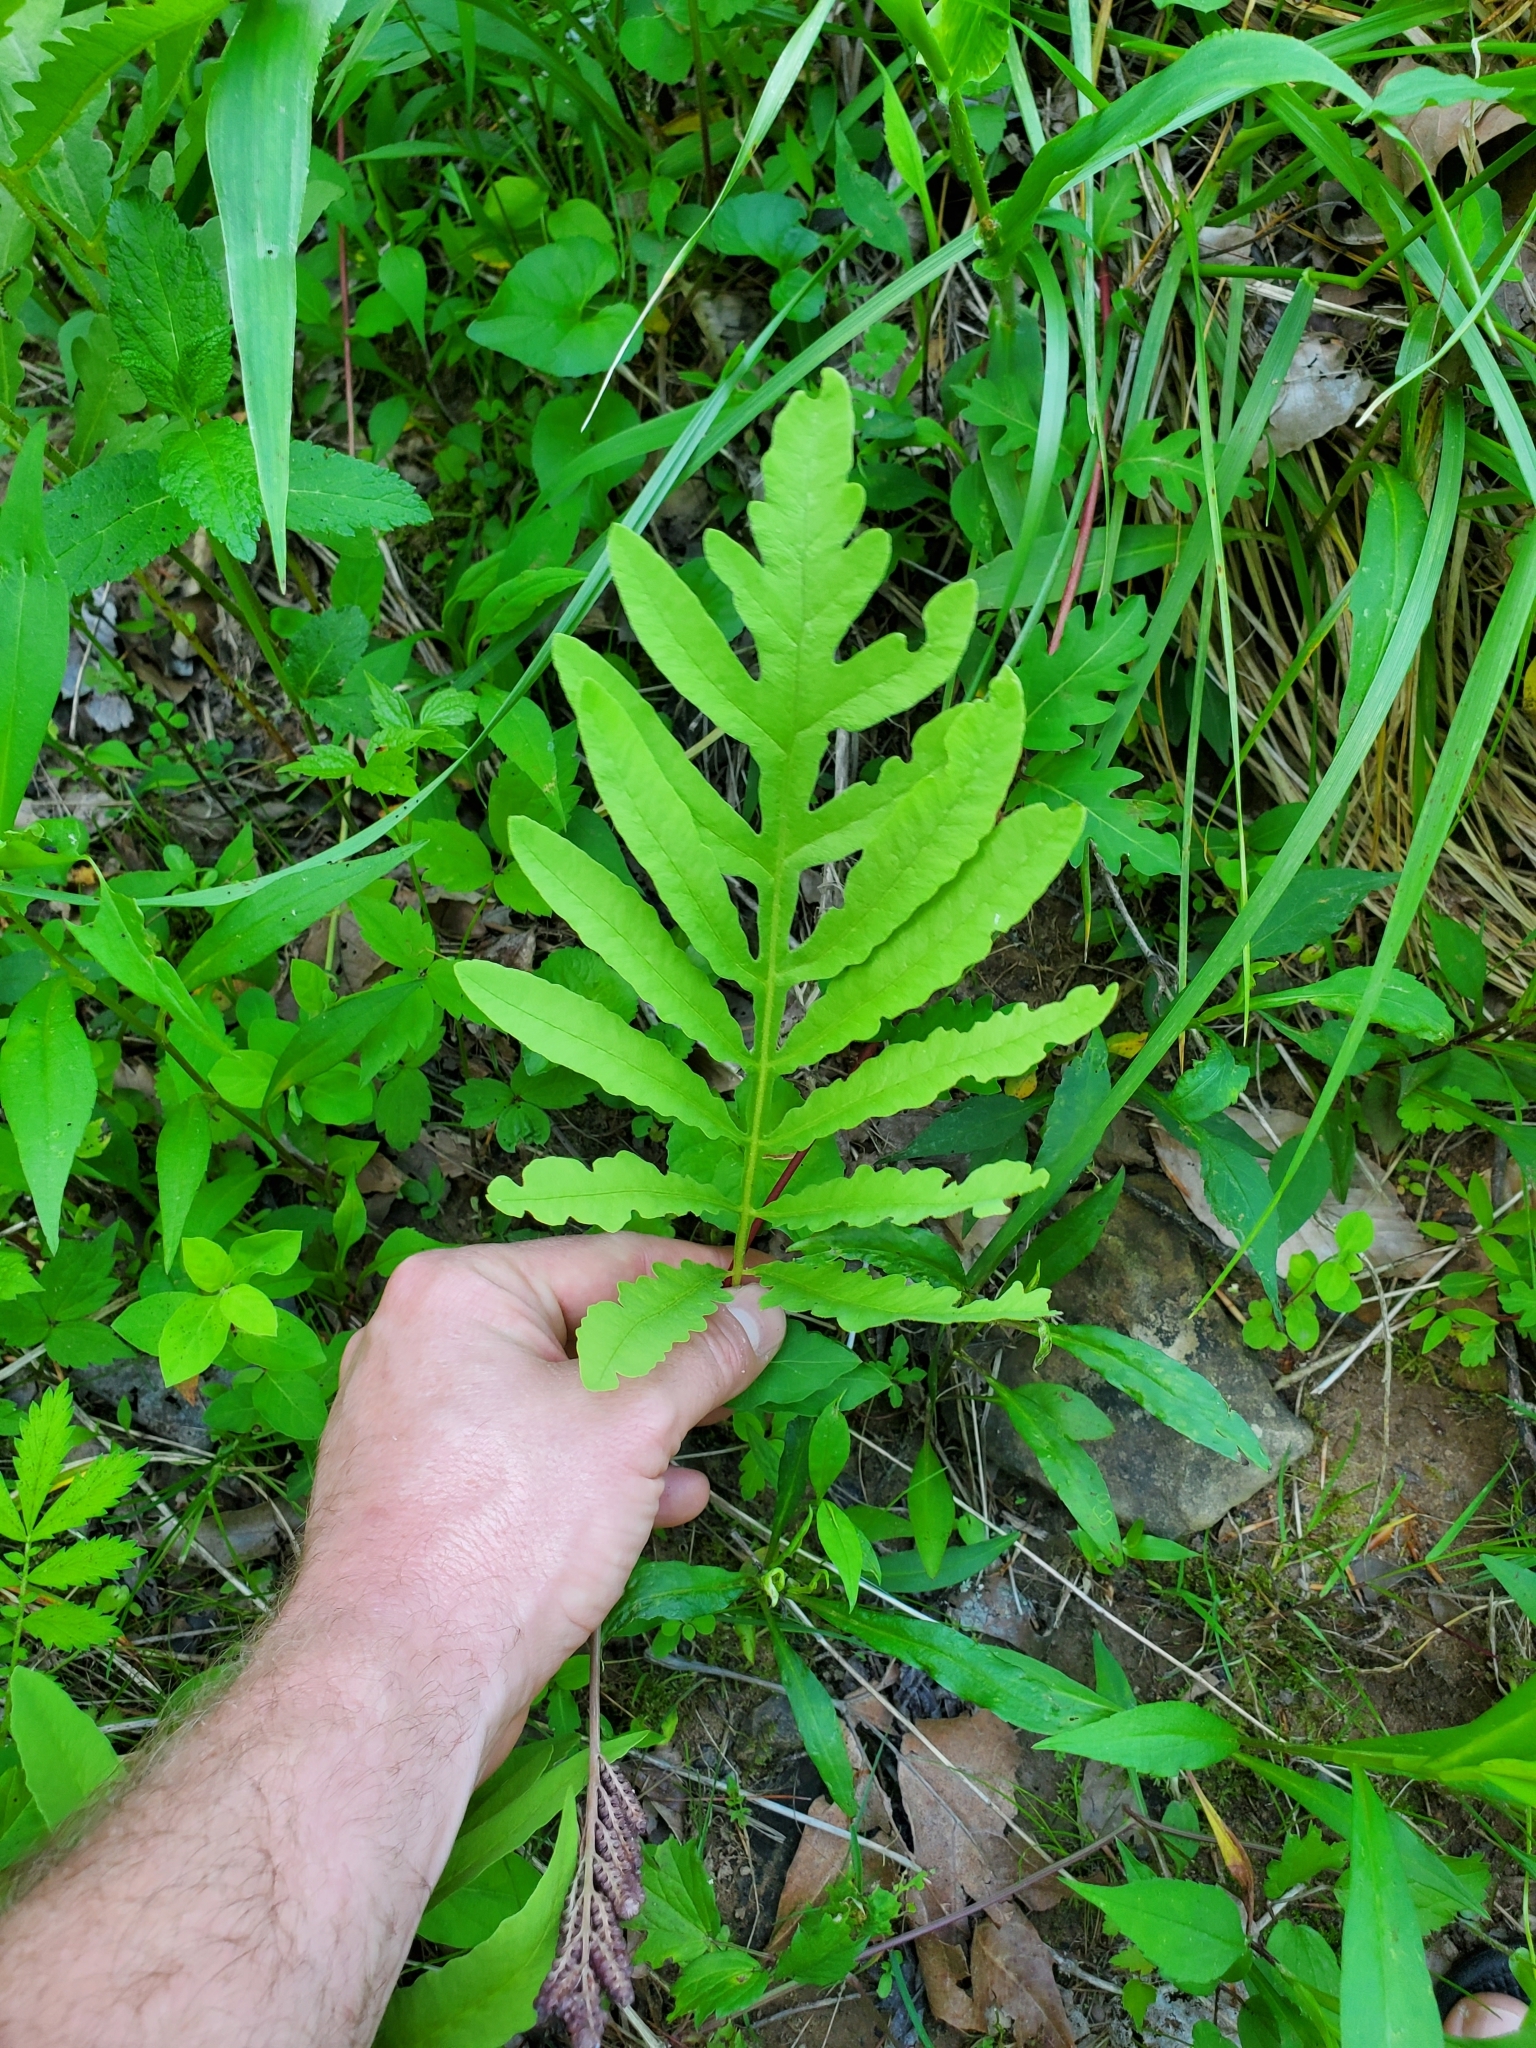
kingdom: Plantae
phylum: Tracheophyta
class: Polypodiopsida
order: Polypodiales
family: Onocleaceae
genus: Onoclea
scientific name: Onoclea sensibilis
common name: Sensitive fern
